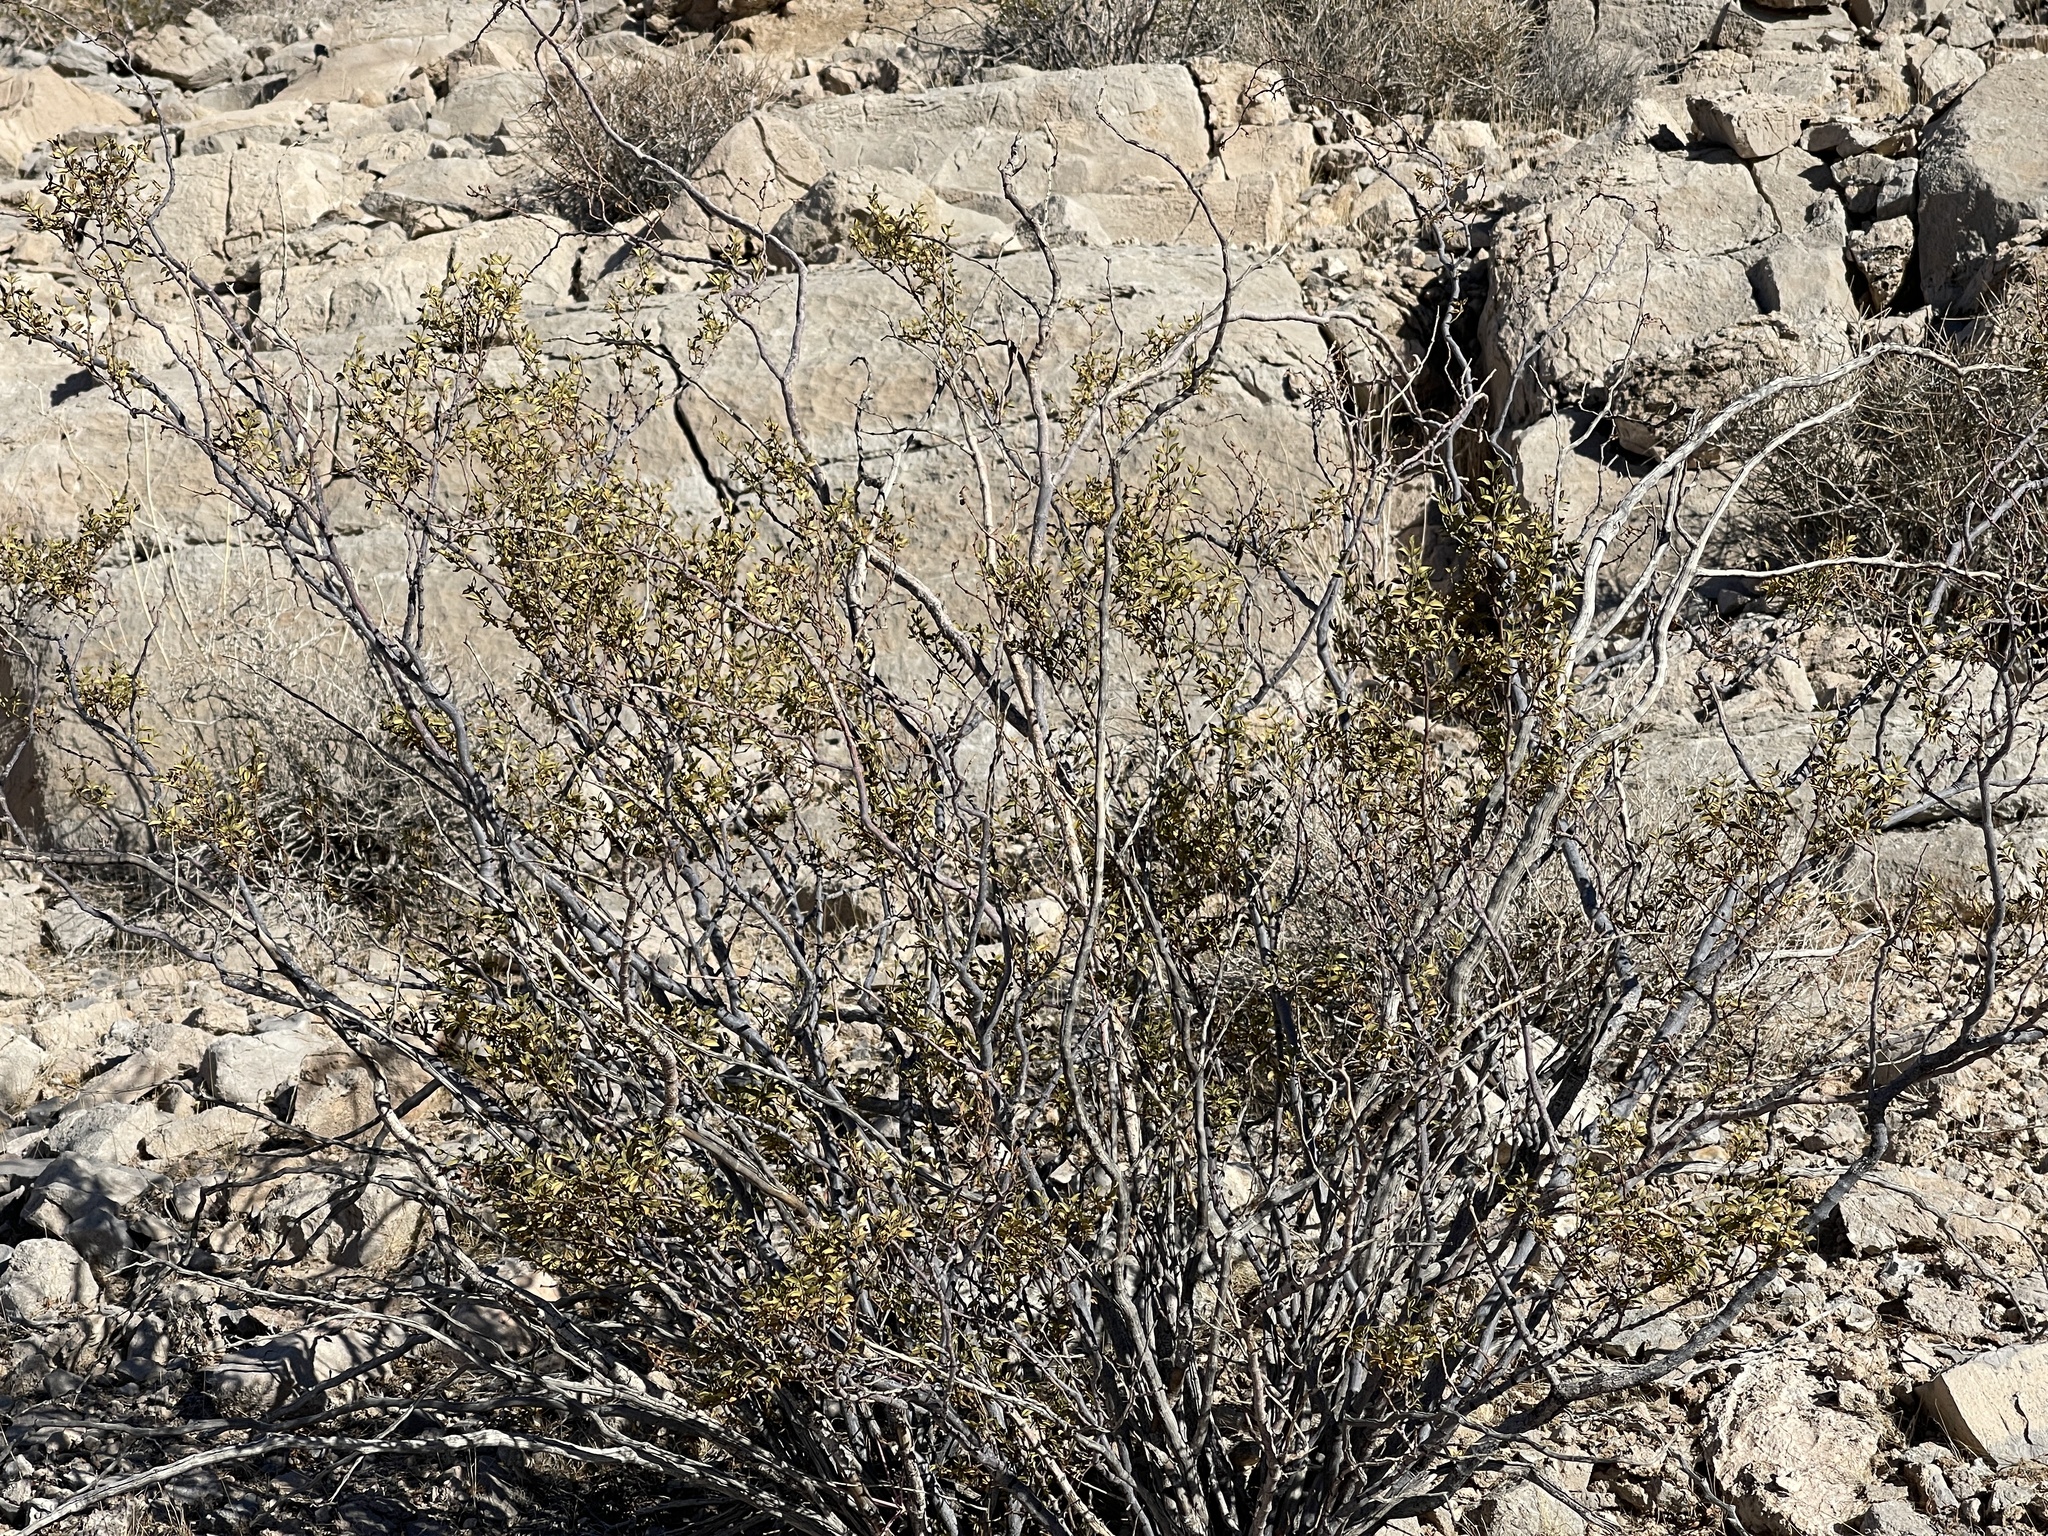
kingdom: Plantae
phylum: Tracheophyta
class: Magnoliopsida
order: Zygophyllales
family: Zygophyllaceae
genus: Larrea
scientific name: Larrea tridentata
